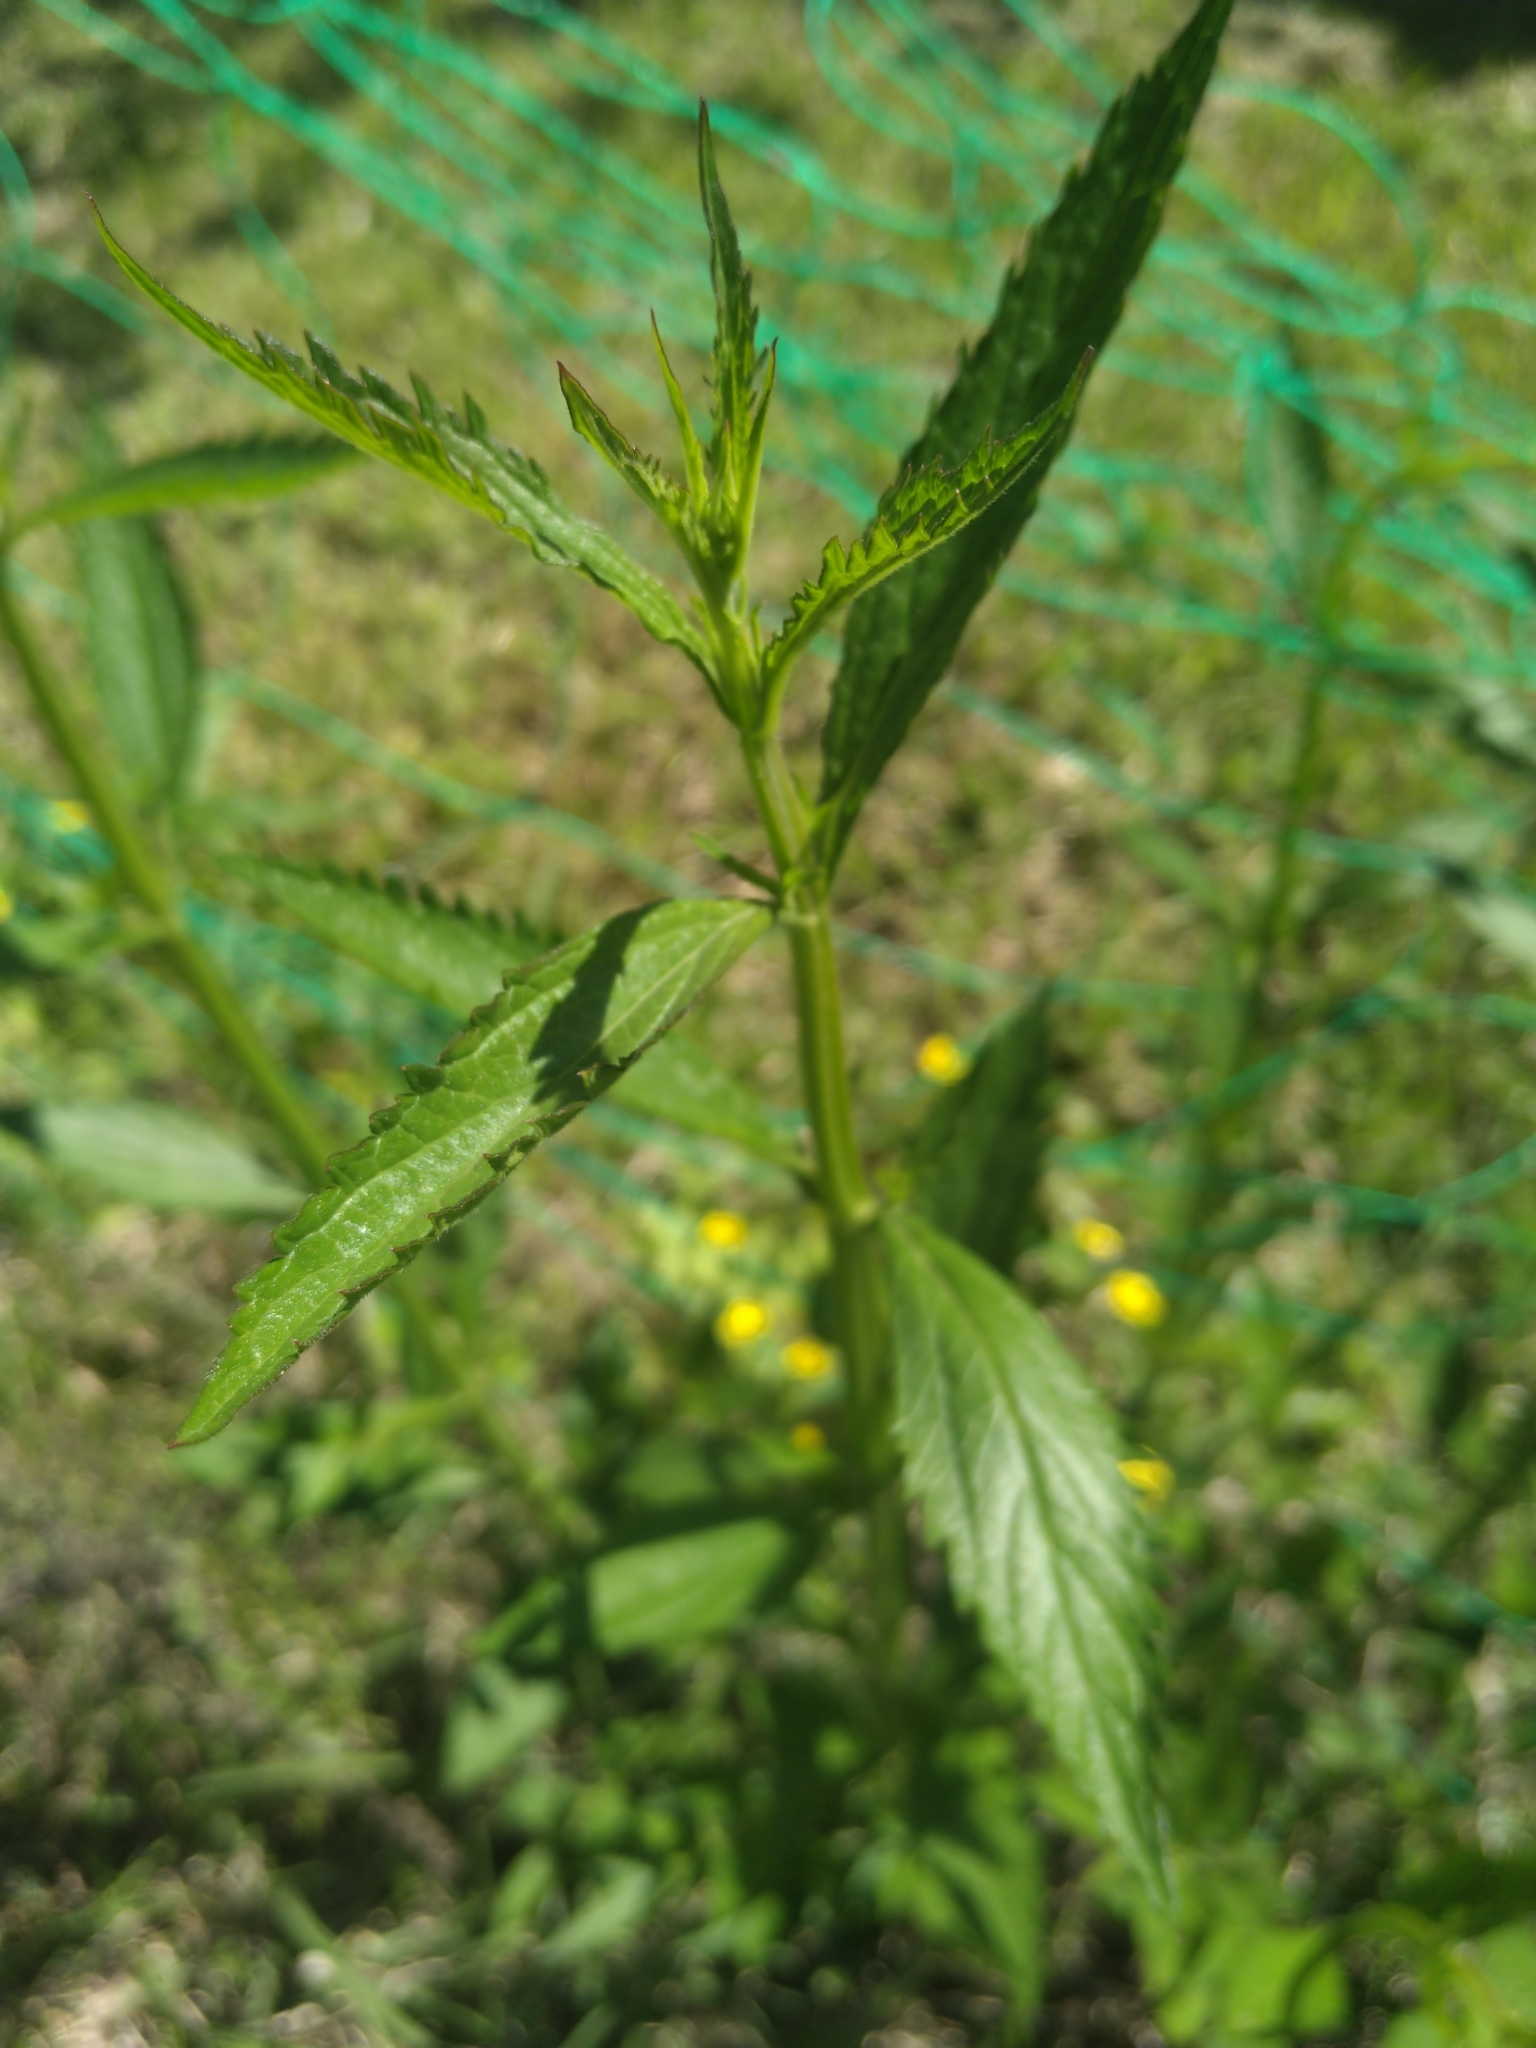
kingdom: Plantae
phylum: Tracheophyta
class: Magnoliopsida
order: Lamiales
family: Verbenaceae
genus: Verbena
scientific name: Verbena brasiliensis
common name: Brazilian vervain
